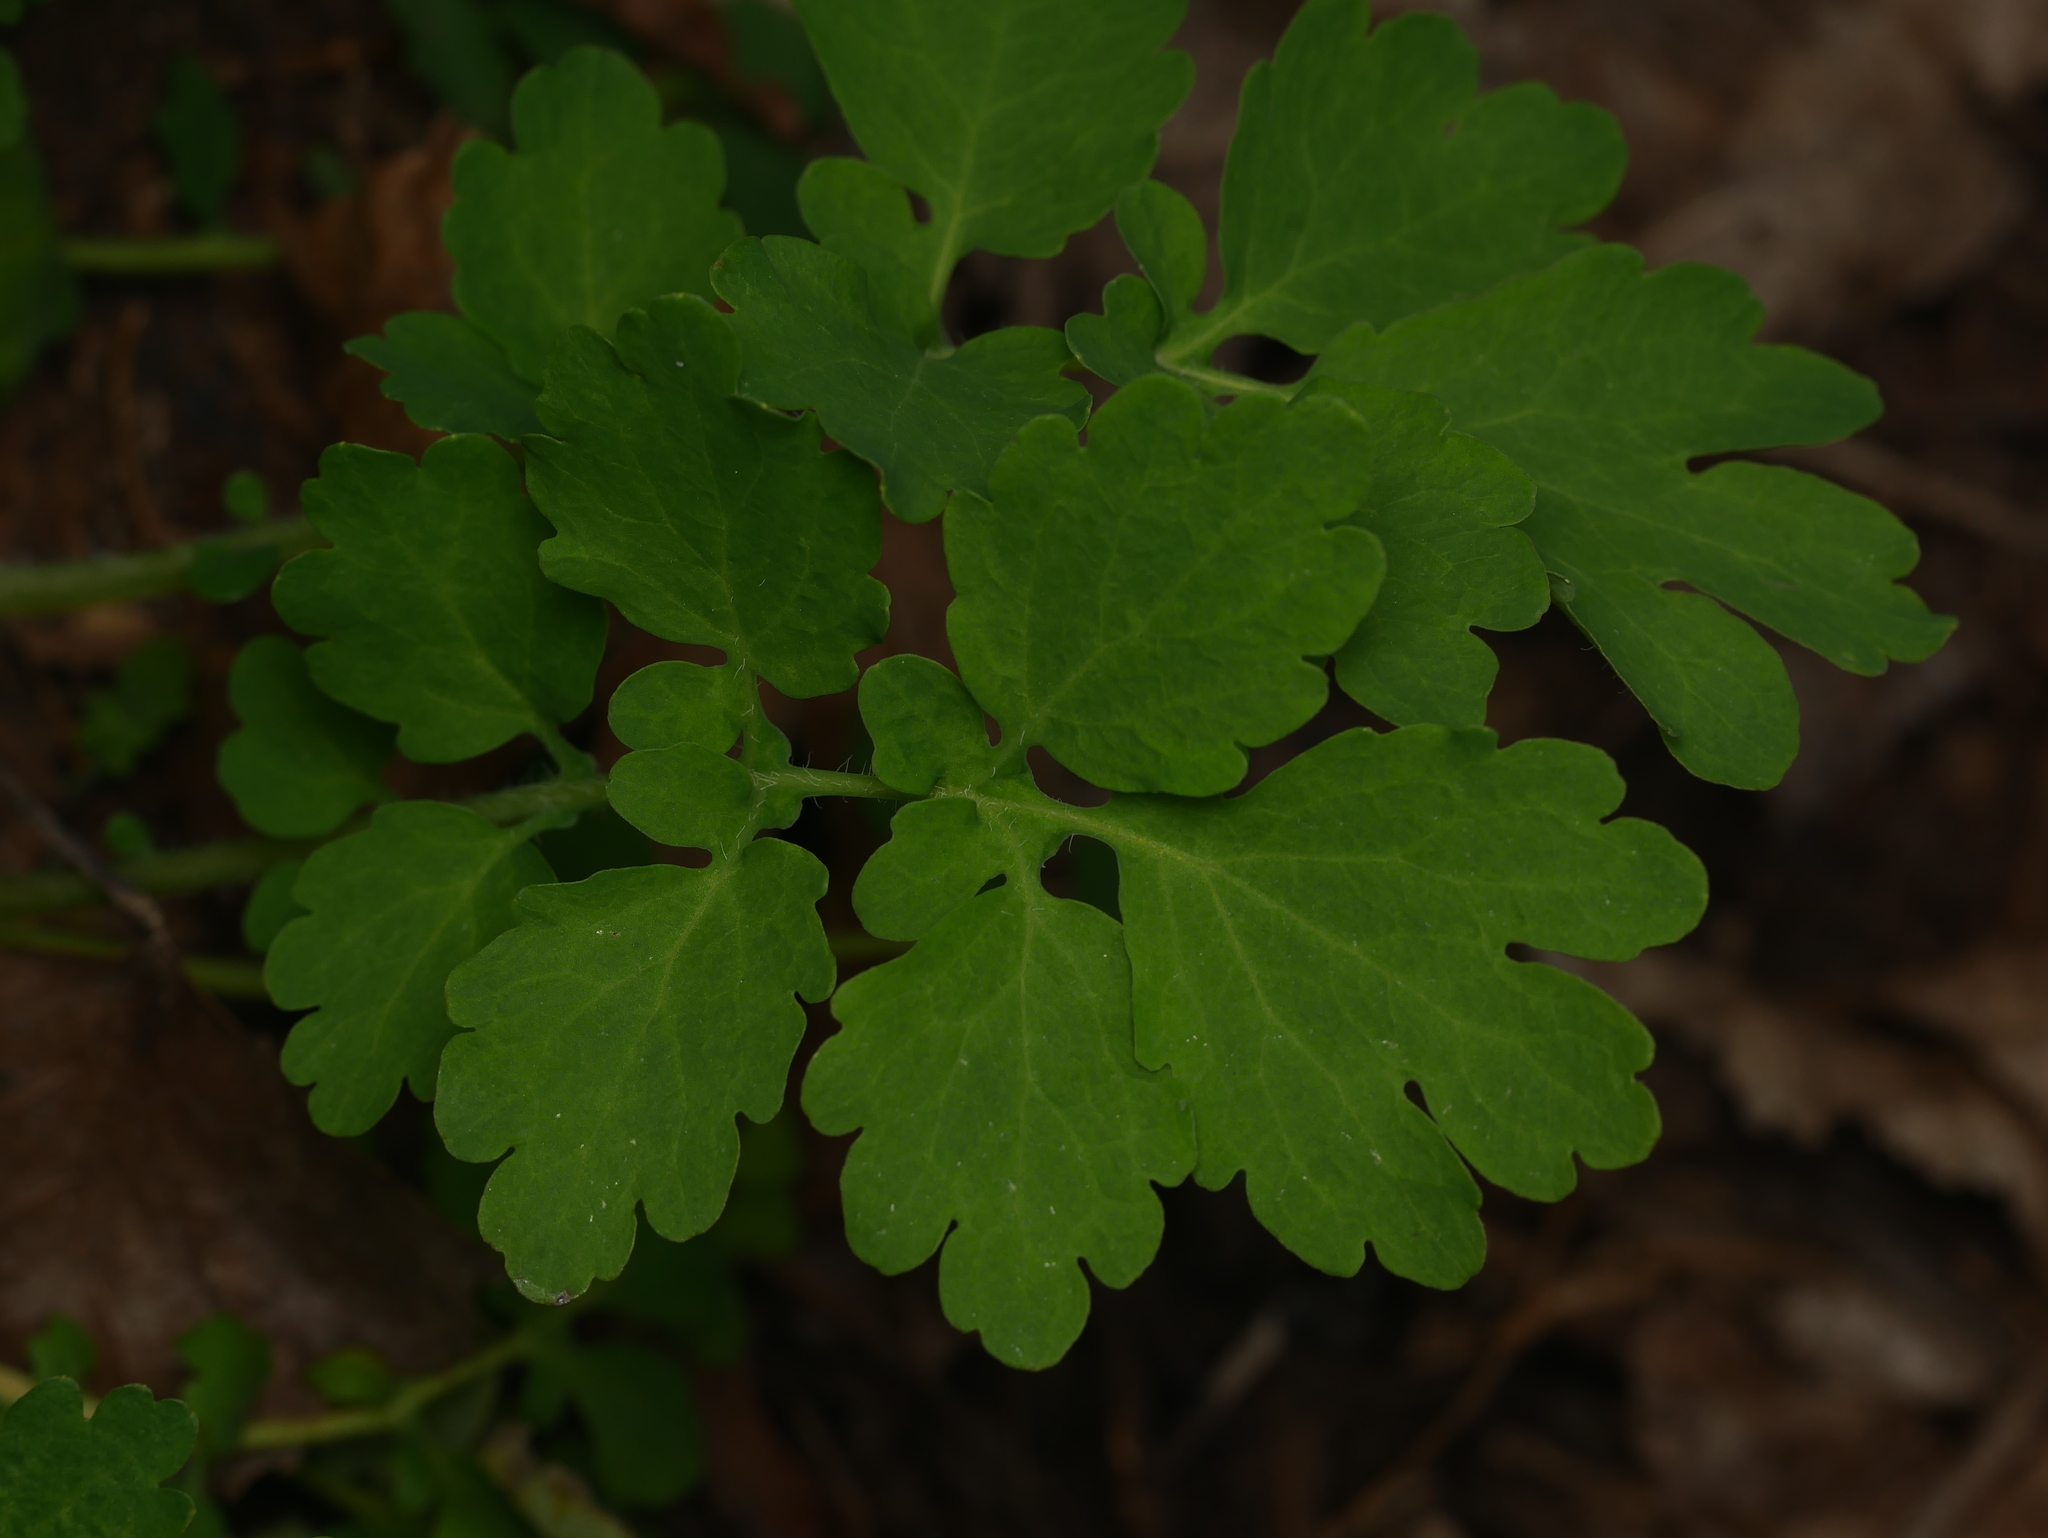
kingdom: Plantae
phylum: Tracheophyta
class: Magnoliopsida
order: Ranunculales
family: Papaveraceae
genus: Chelidonium
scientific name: Chelidonium majus
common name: Greater celandine
